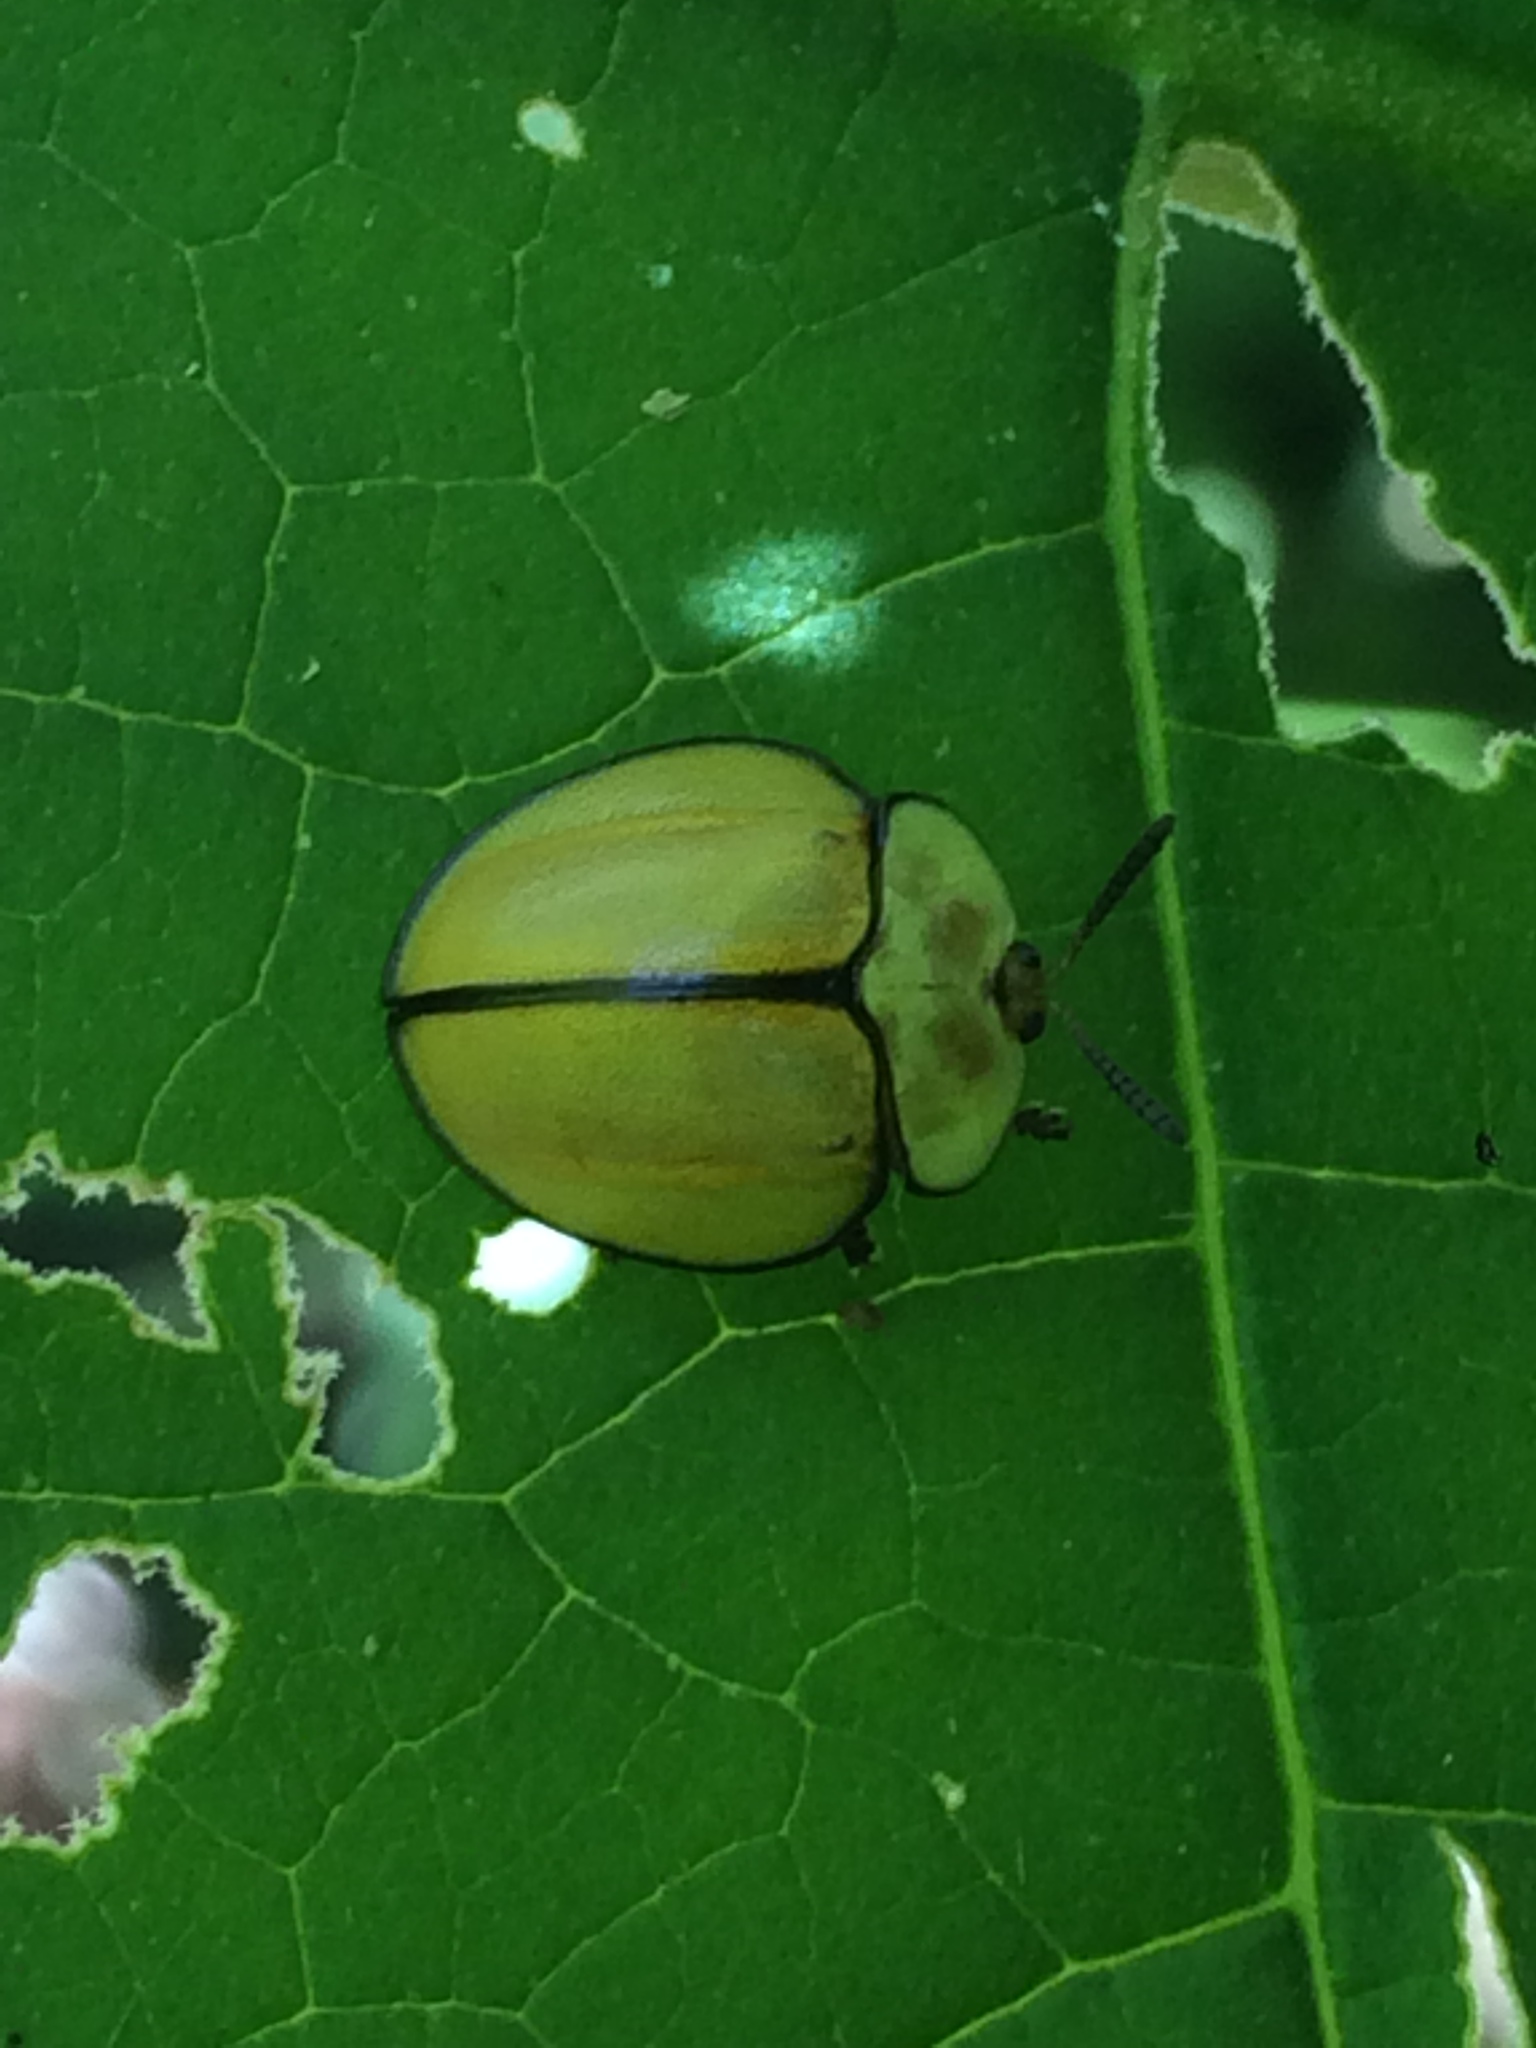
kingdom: Animalia
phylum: Arthropoda
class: Insecta
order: Coleoptera
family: Chrysomelidae
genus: Stolas
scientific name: Stolas plagicollis
